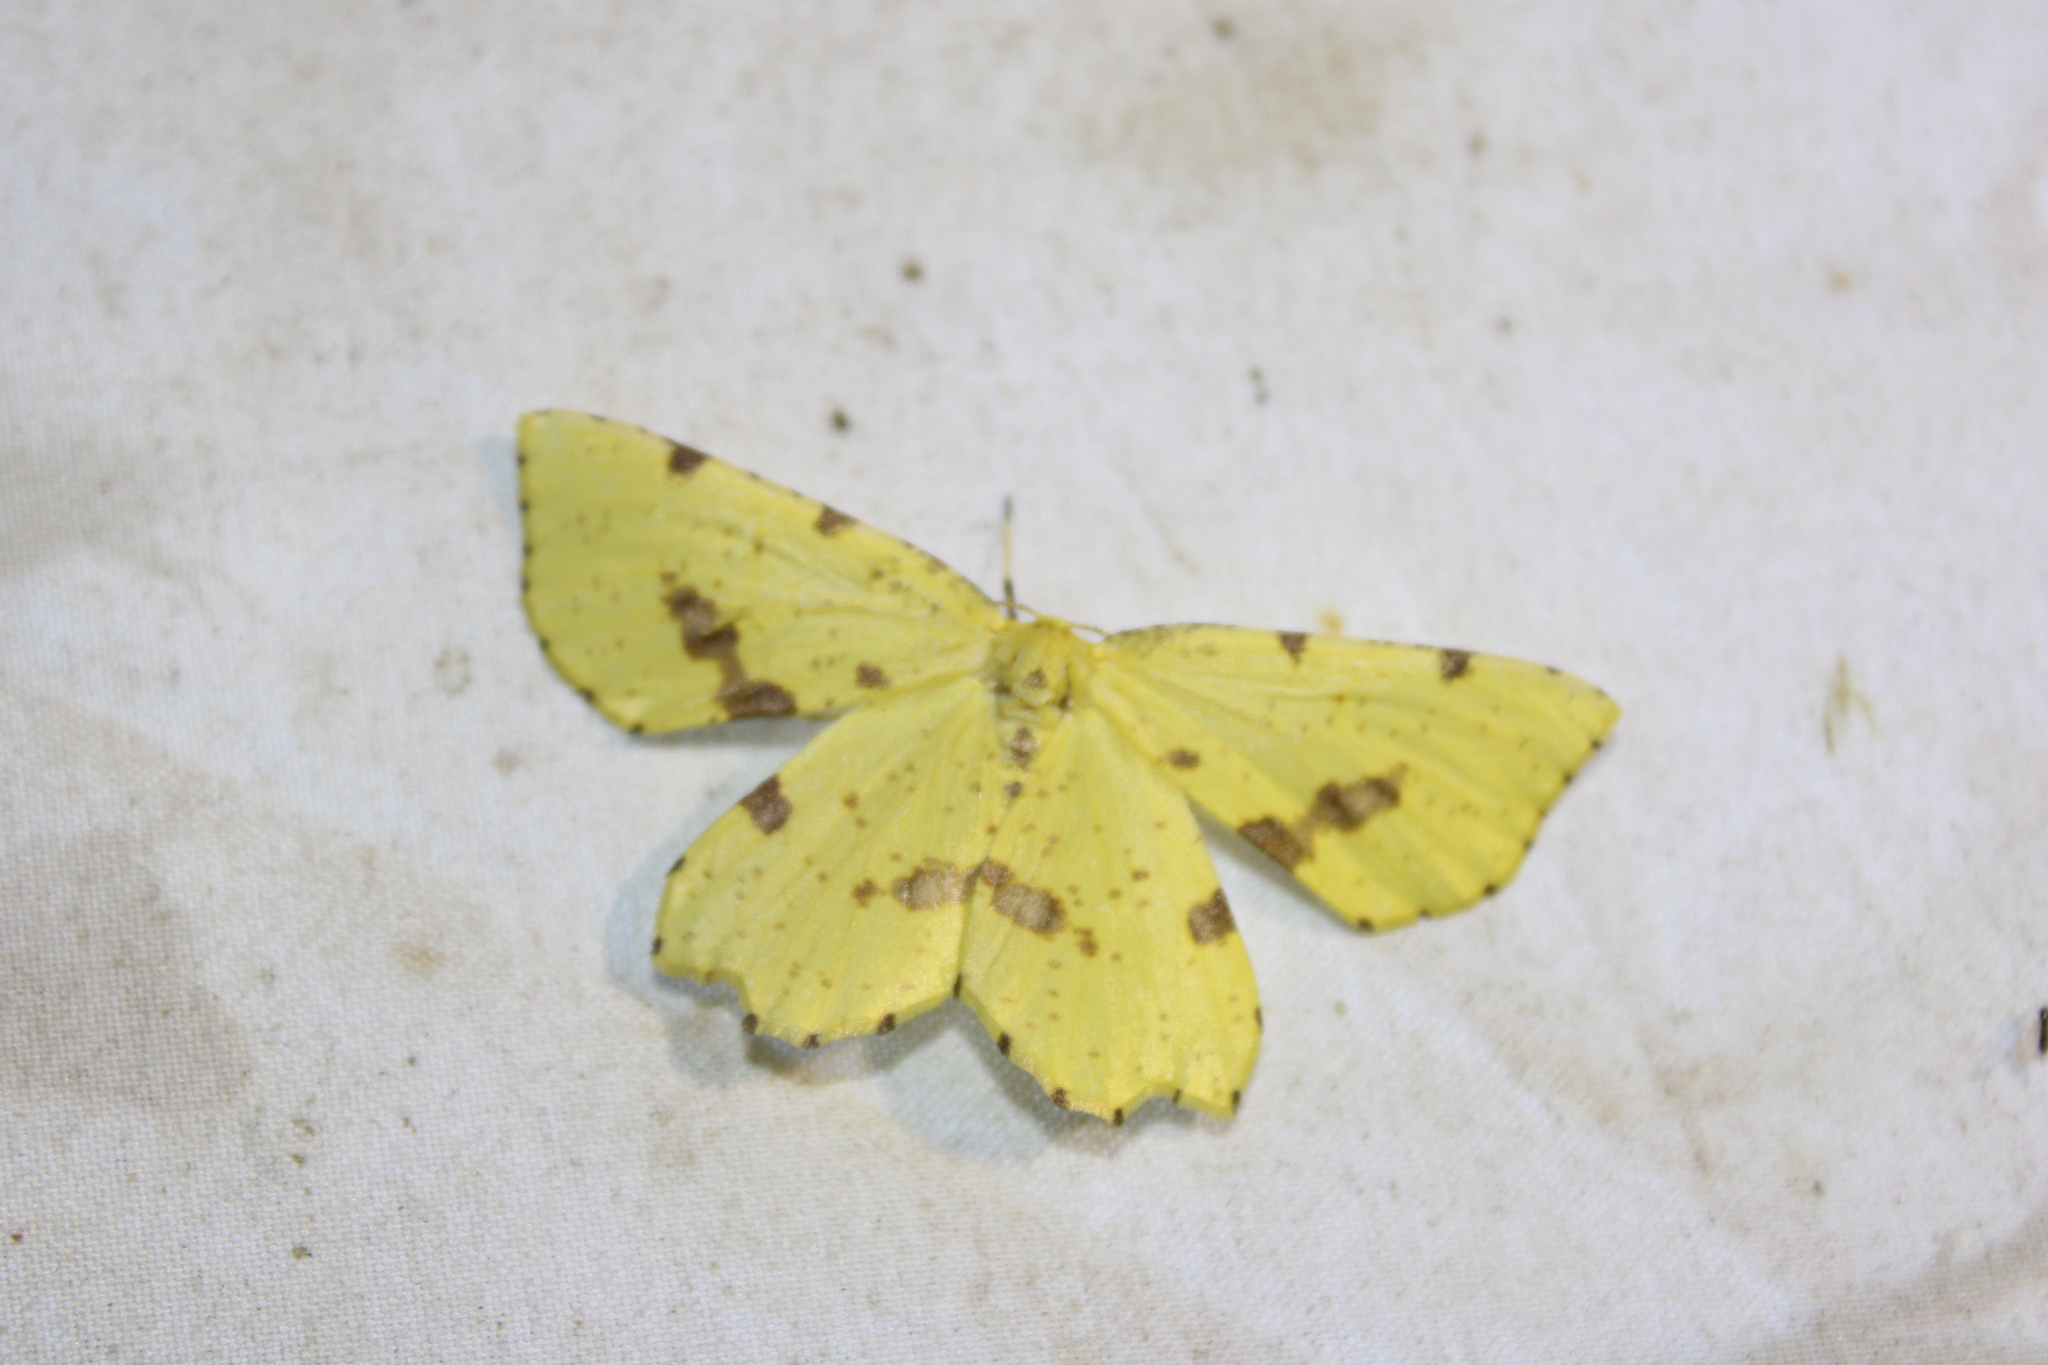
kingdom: Animalia
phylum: Arthropoda
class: Insecta
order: Lepidoptera
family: Geometridae
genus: Xanthotype
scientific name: Xanthotype
